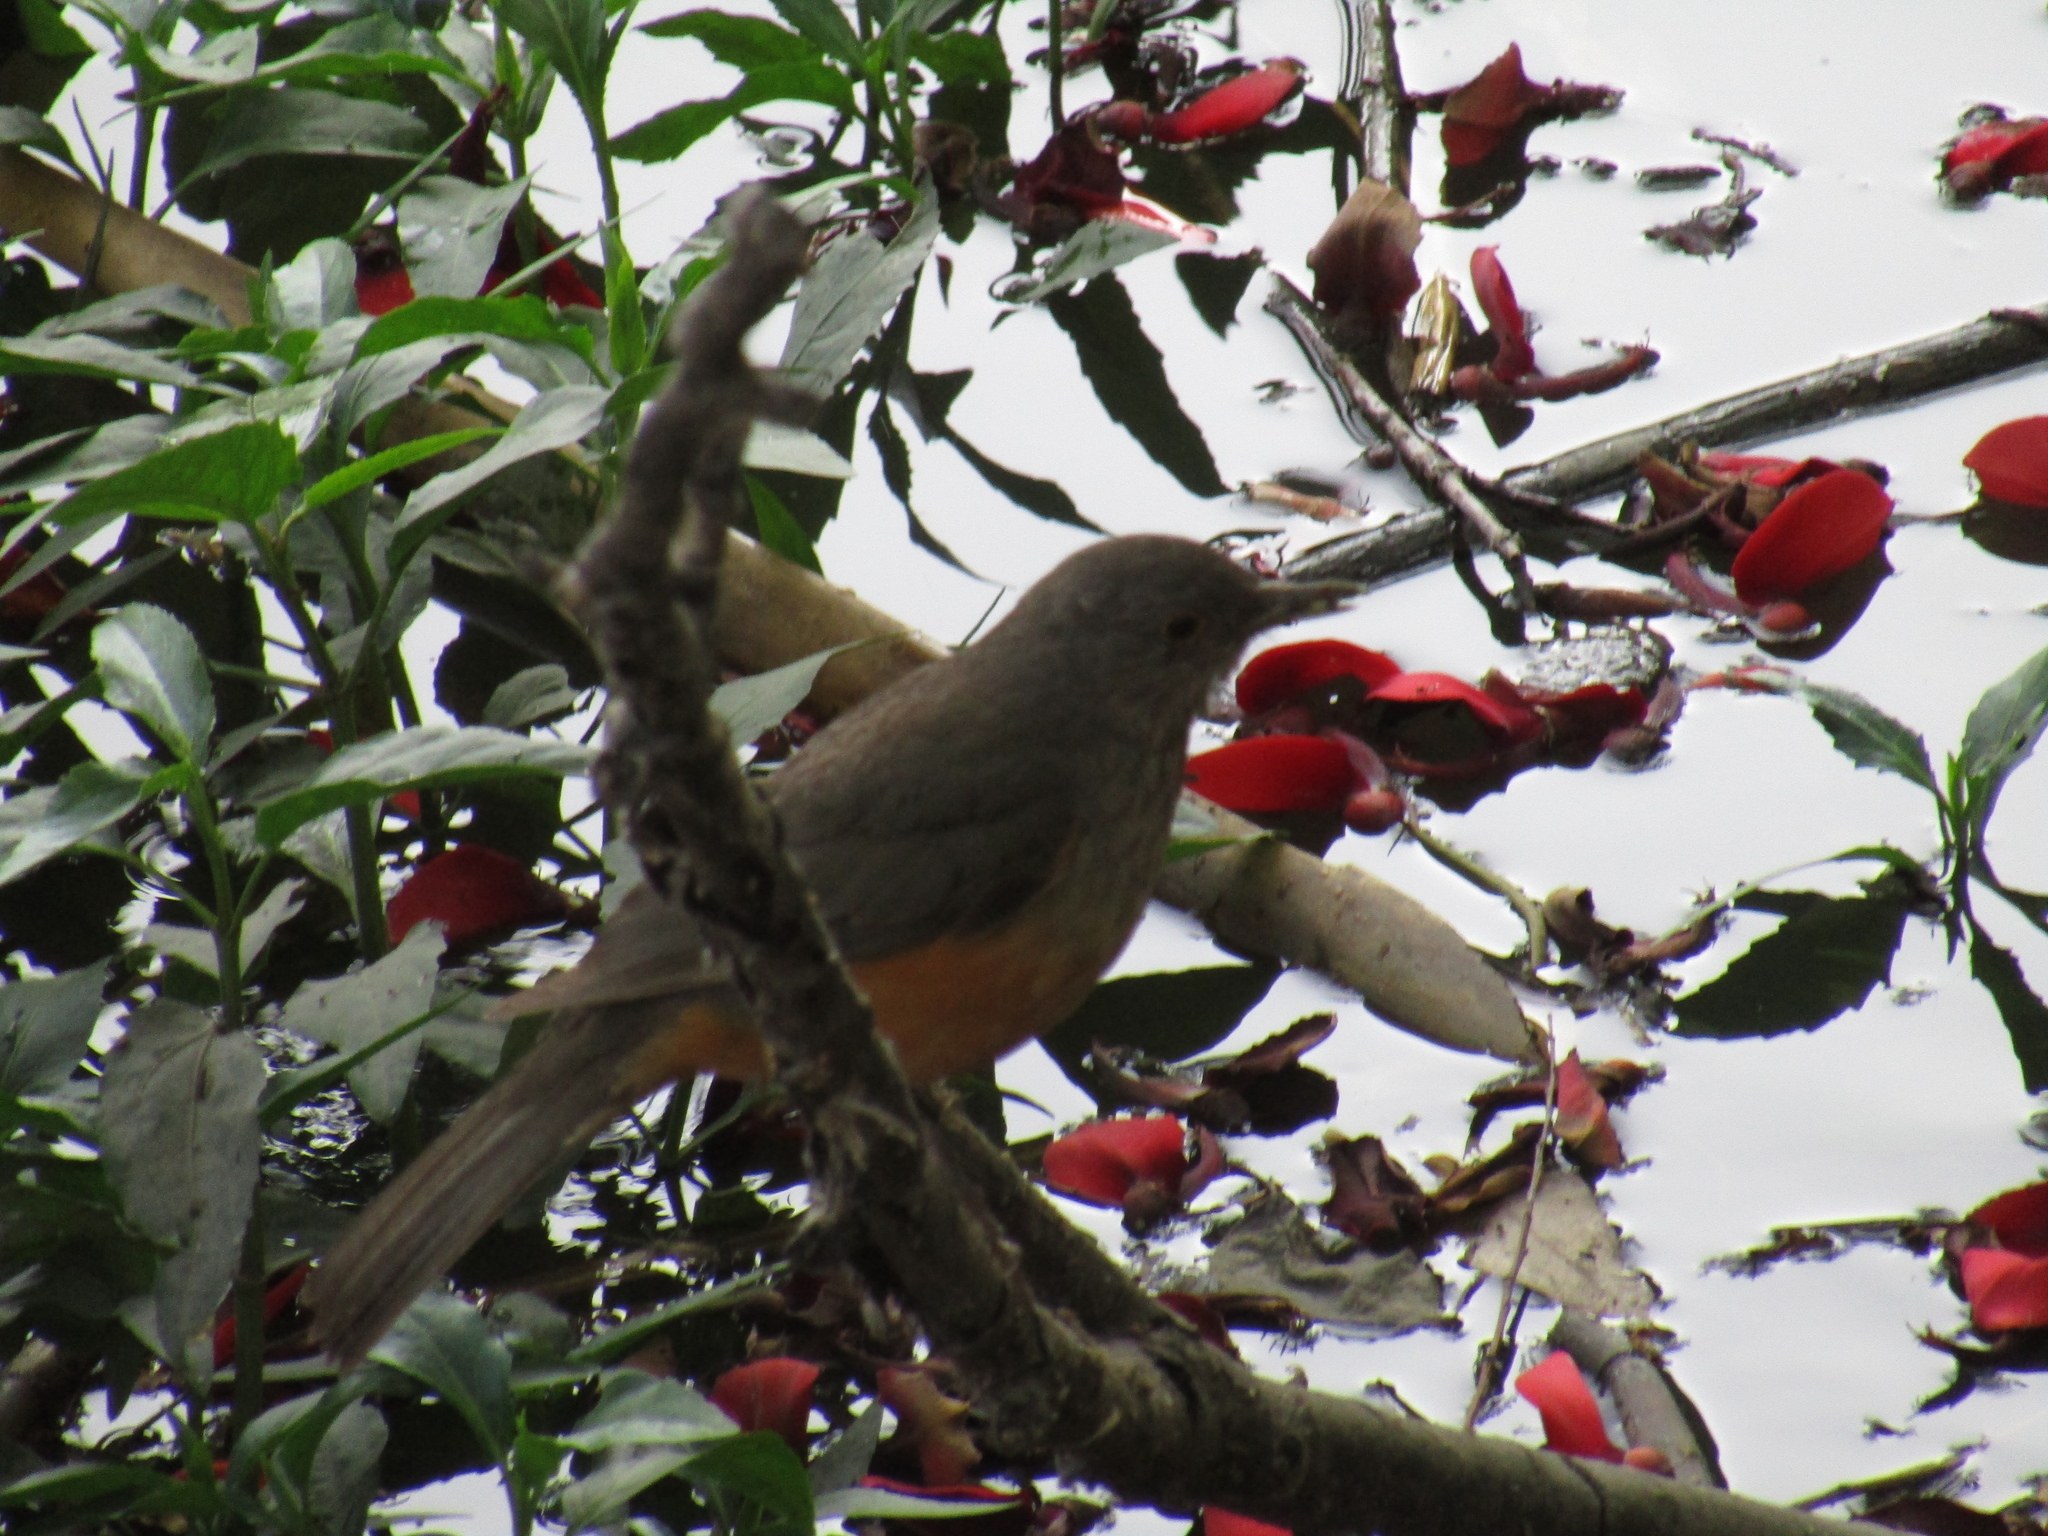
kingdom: Animalia
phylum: Chordata
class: Aves
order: Passeriformes
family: Turdidae
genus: Turdus
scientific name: Turdus rufiventris
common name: Rufous-bellied thrush
